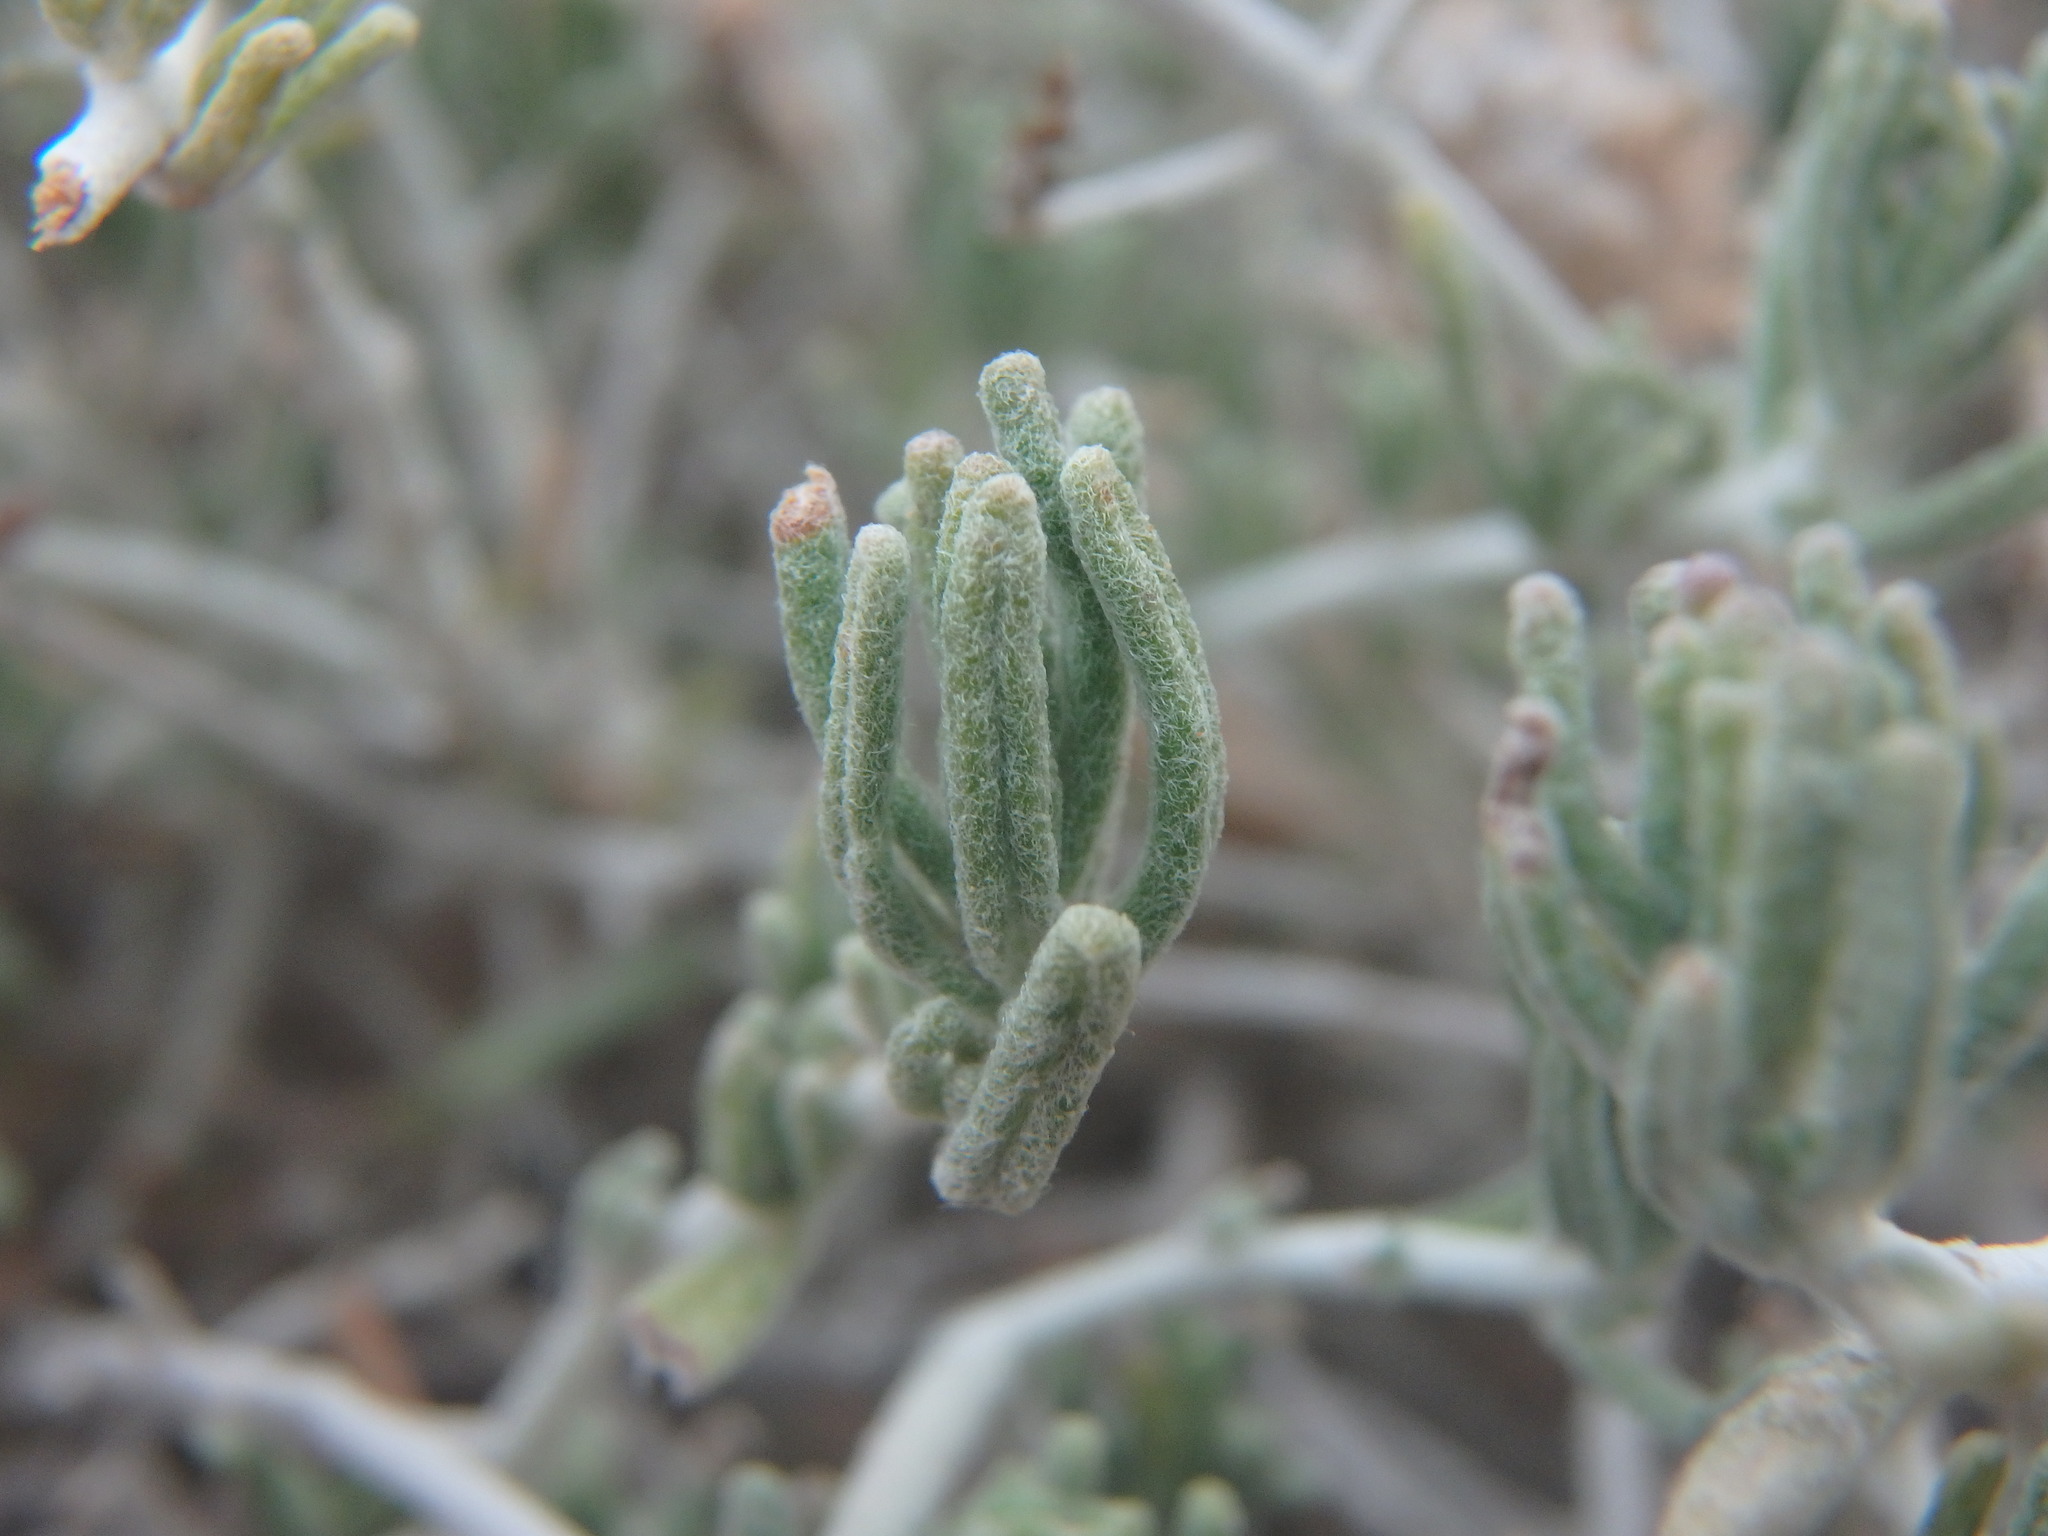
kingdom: Plantae
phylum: Tracheophyta
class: Magnoliopsida
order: Lamiales
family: Lamiaceae
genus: Teucrium
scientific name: Teucrium capitatum
